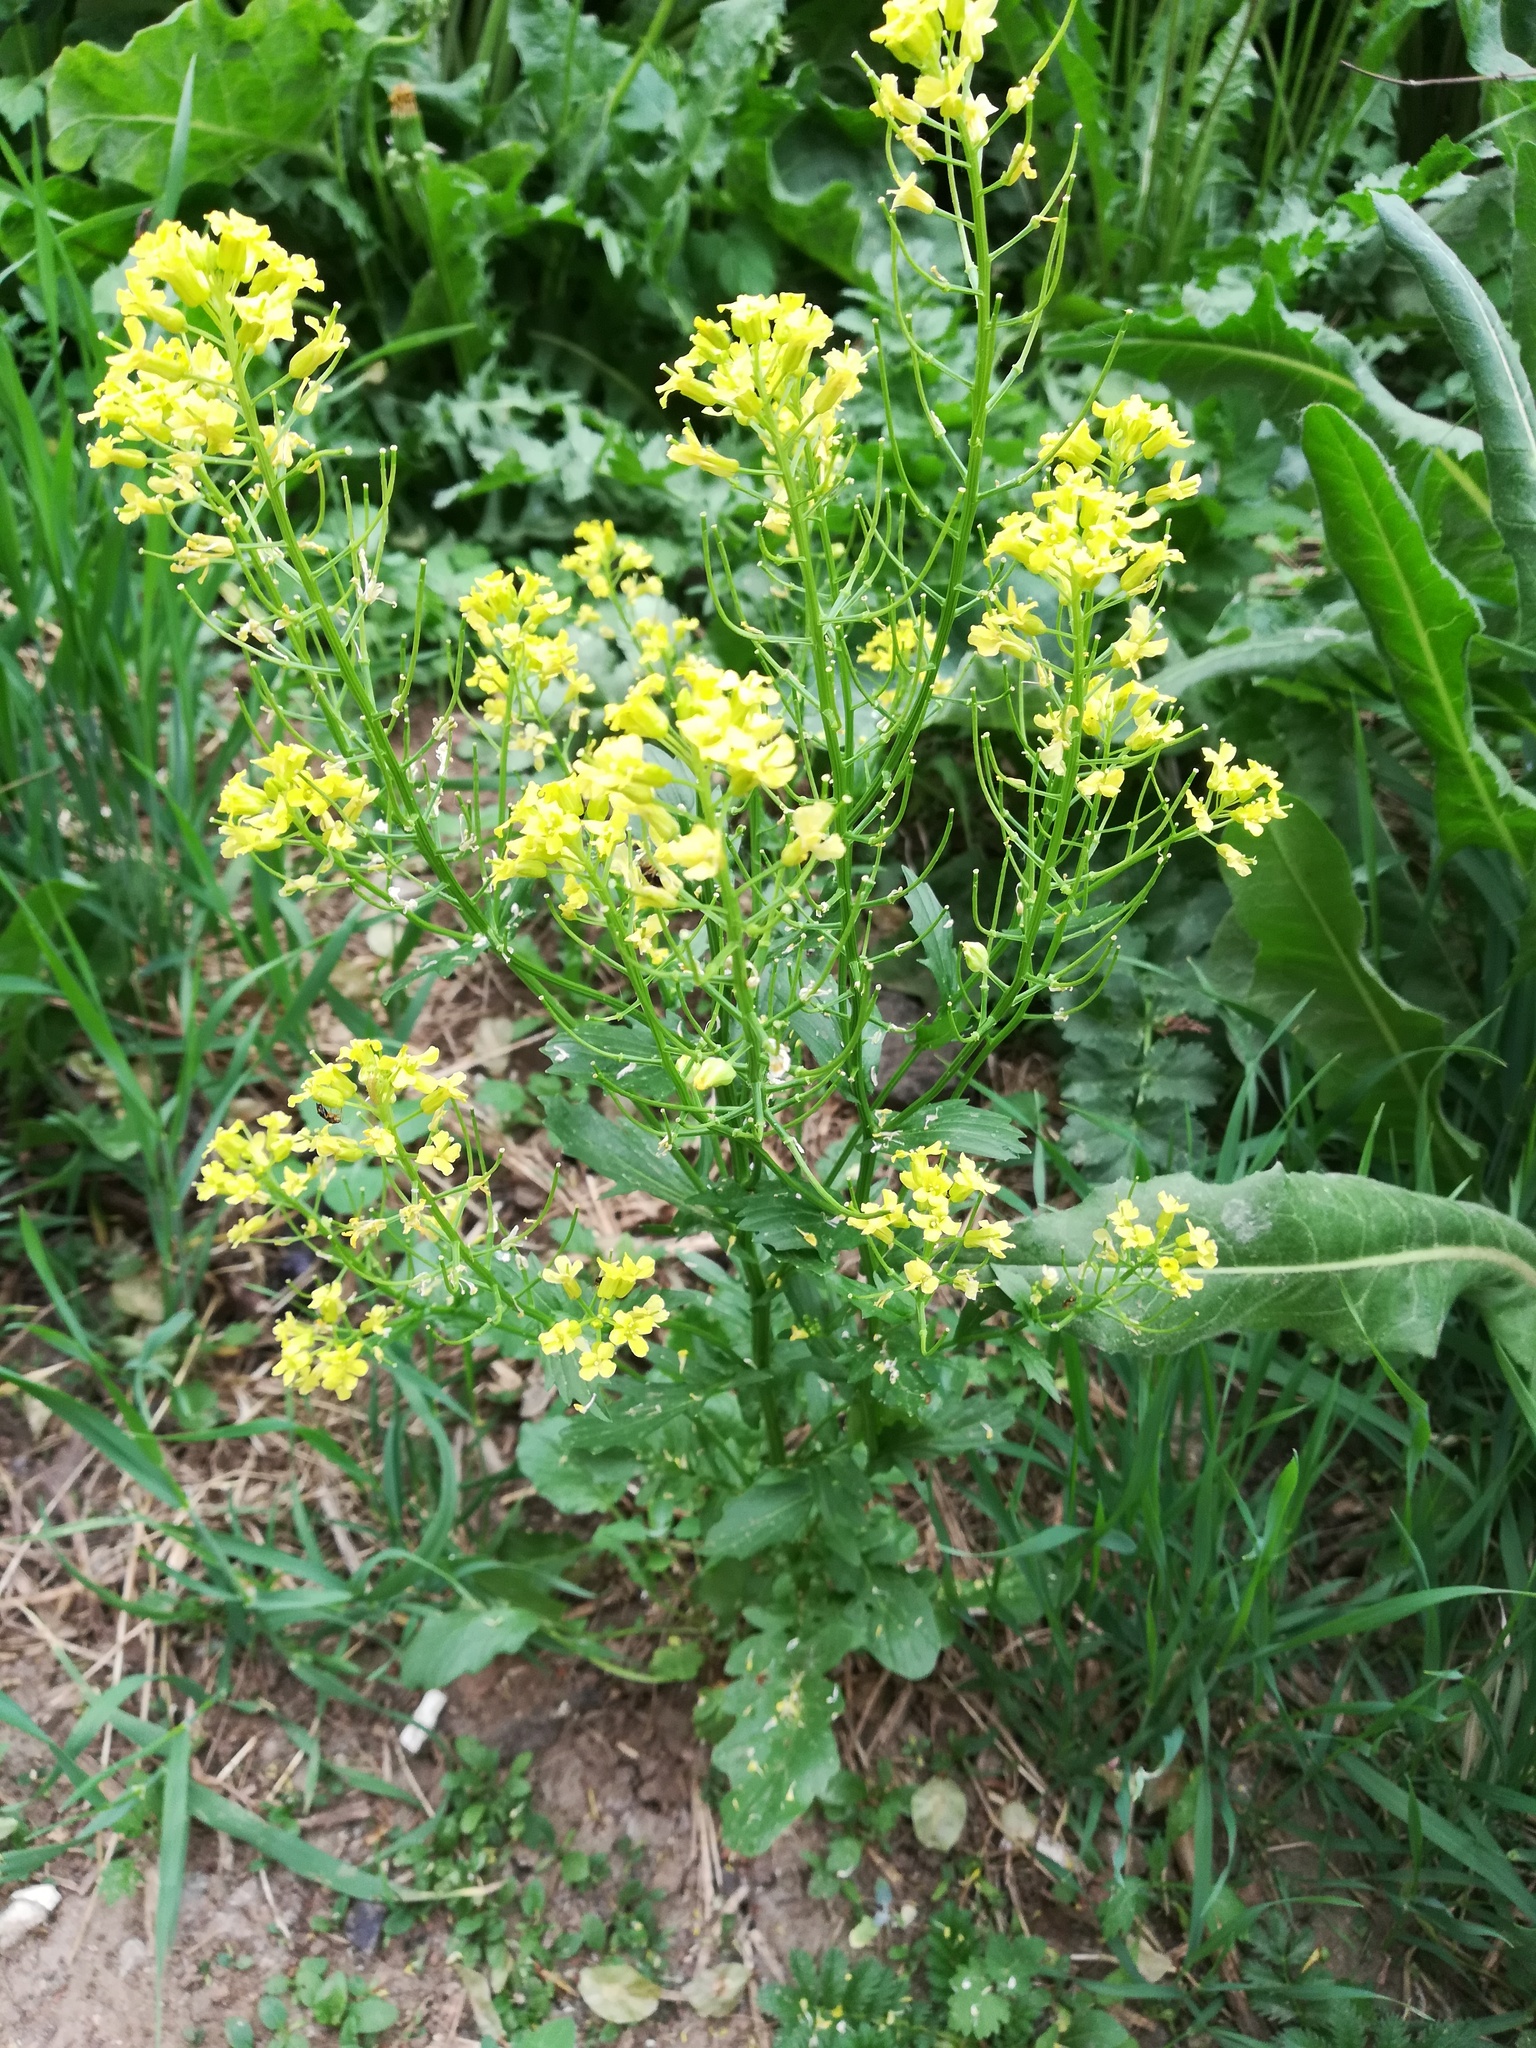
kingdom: Plantae
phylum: Tracheophyta
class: Magnoliopsida
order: Brassicales
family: Brassicaceae
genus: Barbarea
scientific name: Barbarea vulgaris
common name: Cressy-greens
